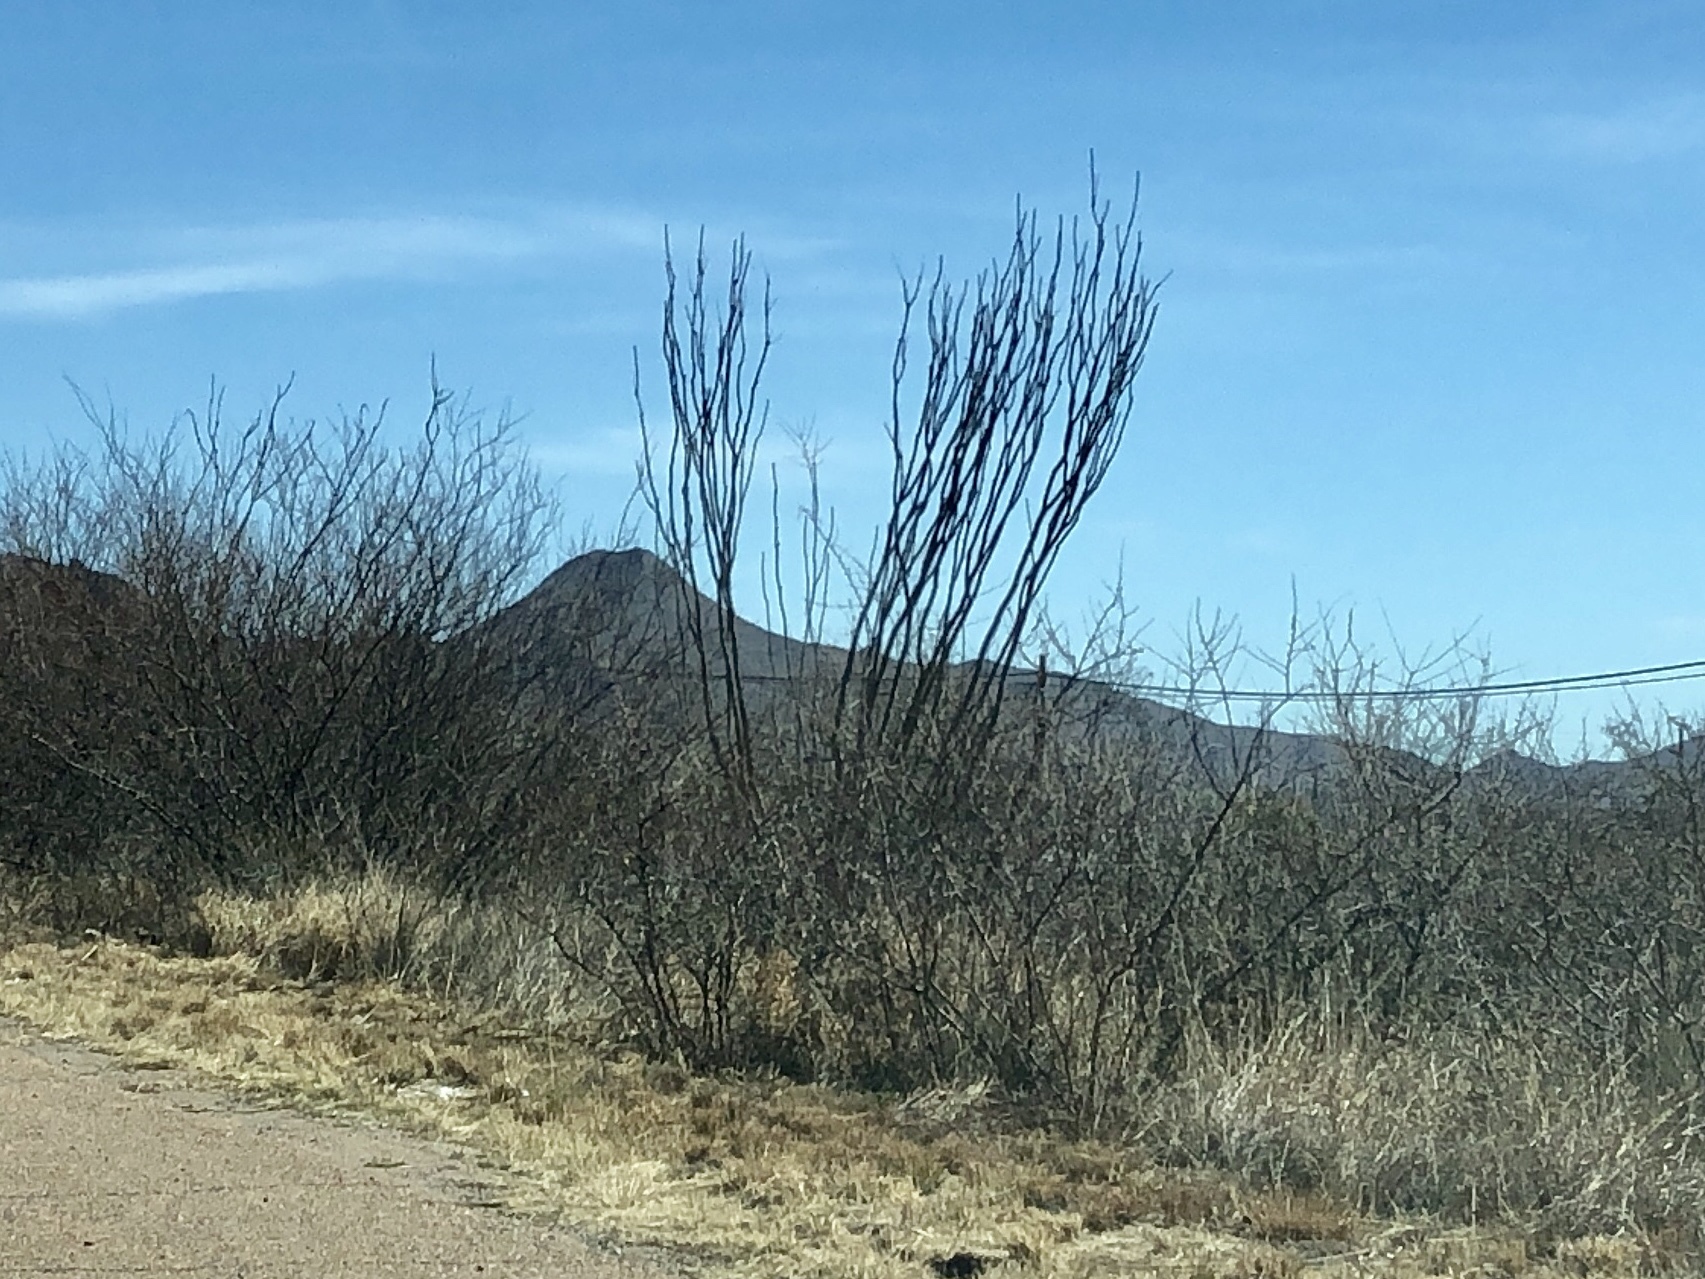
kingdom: Plantae
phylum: Tracheophyta
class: Magnoliopsida
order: Ericales
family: Fouquieriaceae
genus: Fouquieria
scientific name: Fouquieria splendens
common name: Vine-cactus
